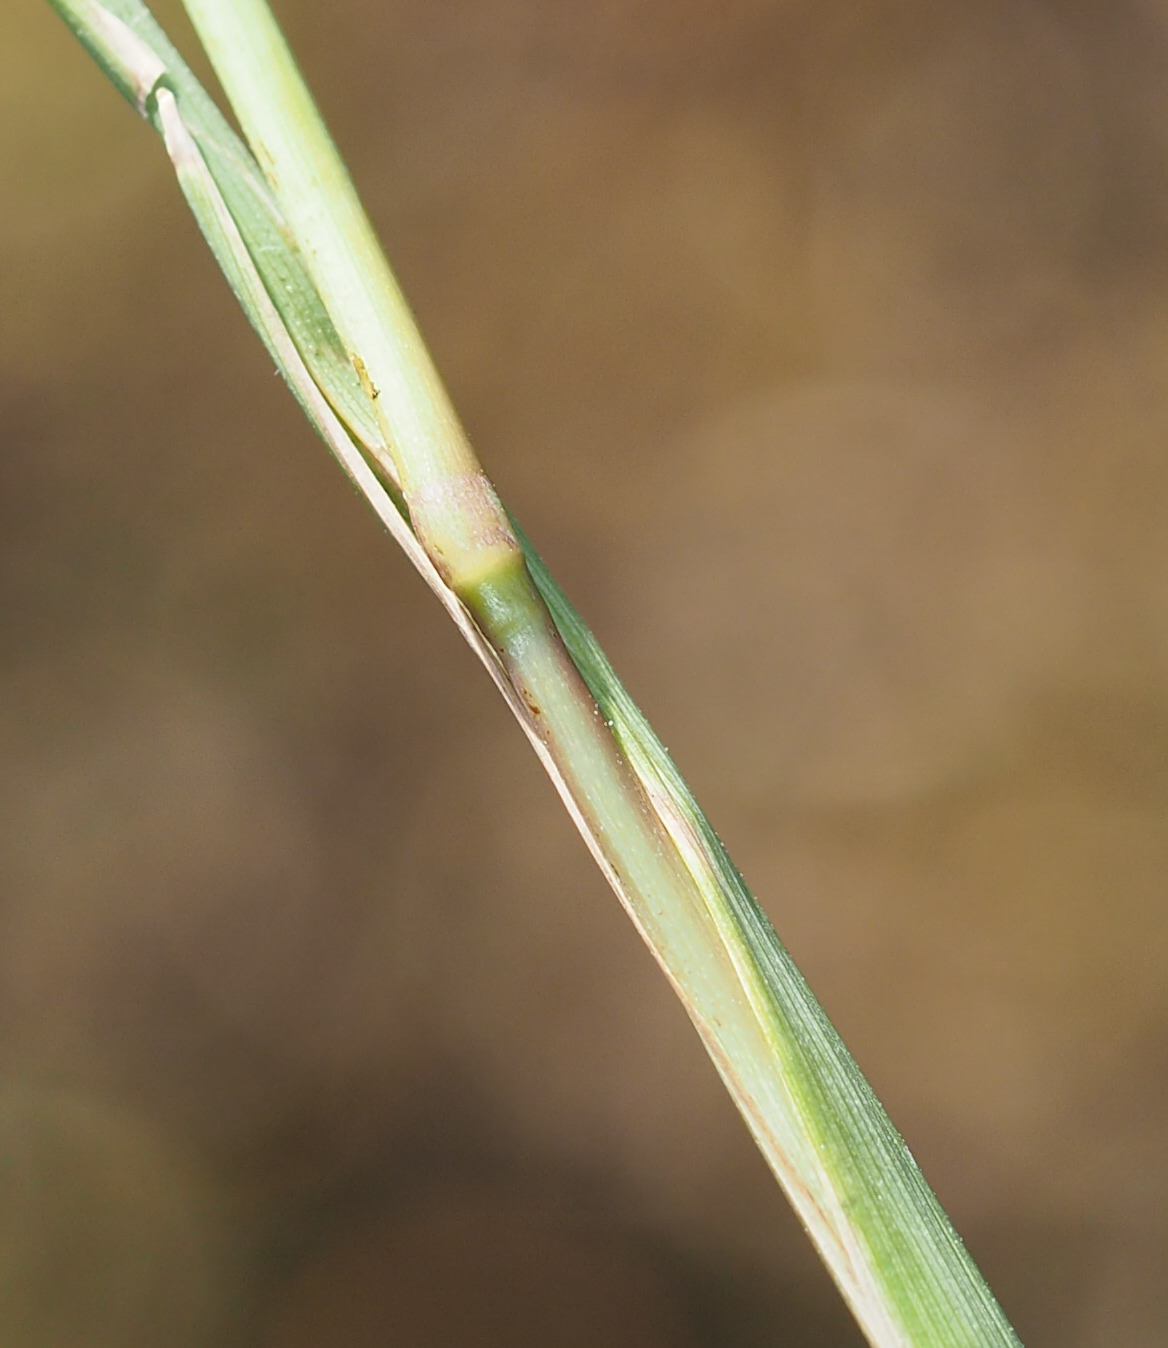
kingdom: Plantae
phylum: Tracheophyta
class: Liliopsida
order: Poales
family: Poaceae
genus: Paspalum
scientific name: Paspalum dilatatum
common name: Dallisgrass
